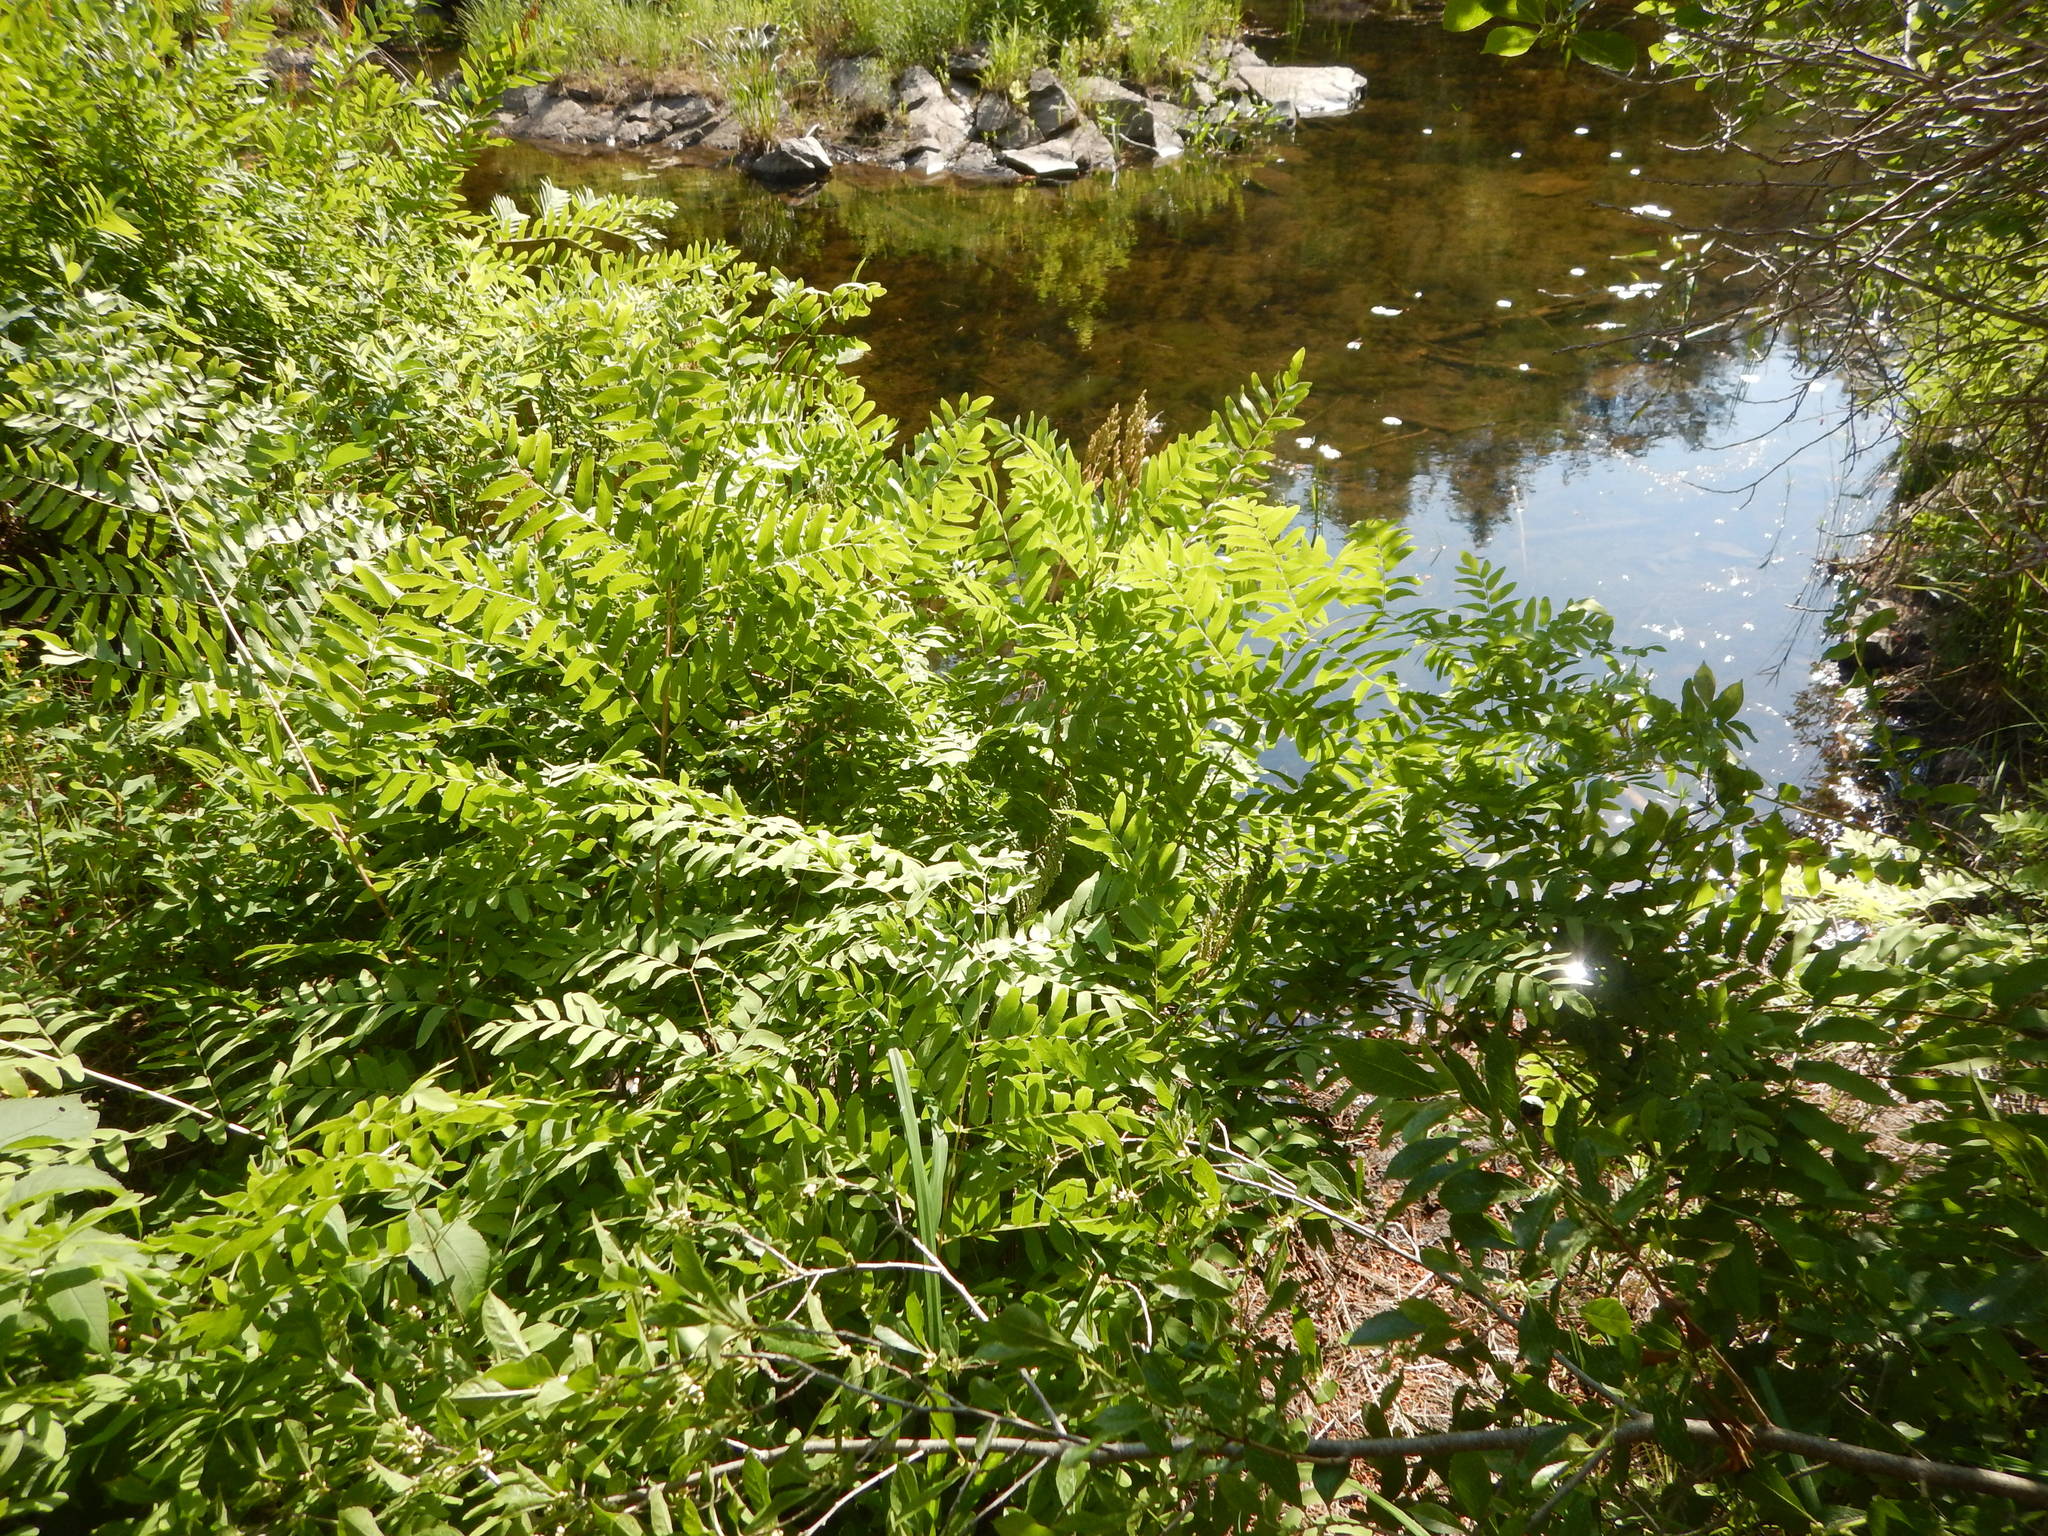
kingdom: Plantae
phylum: Tracheophyta
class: Polypodiopsida
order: Osmundales
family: Osmundaceae
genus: Osmunda
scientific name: Osmunda spectabilis
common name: American royal fern
